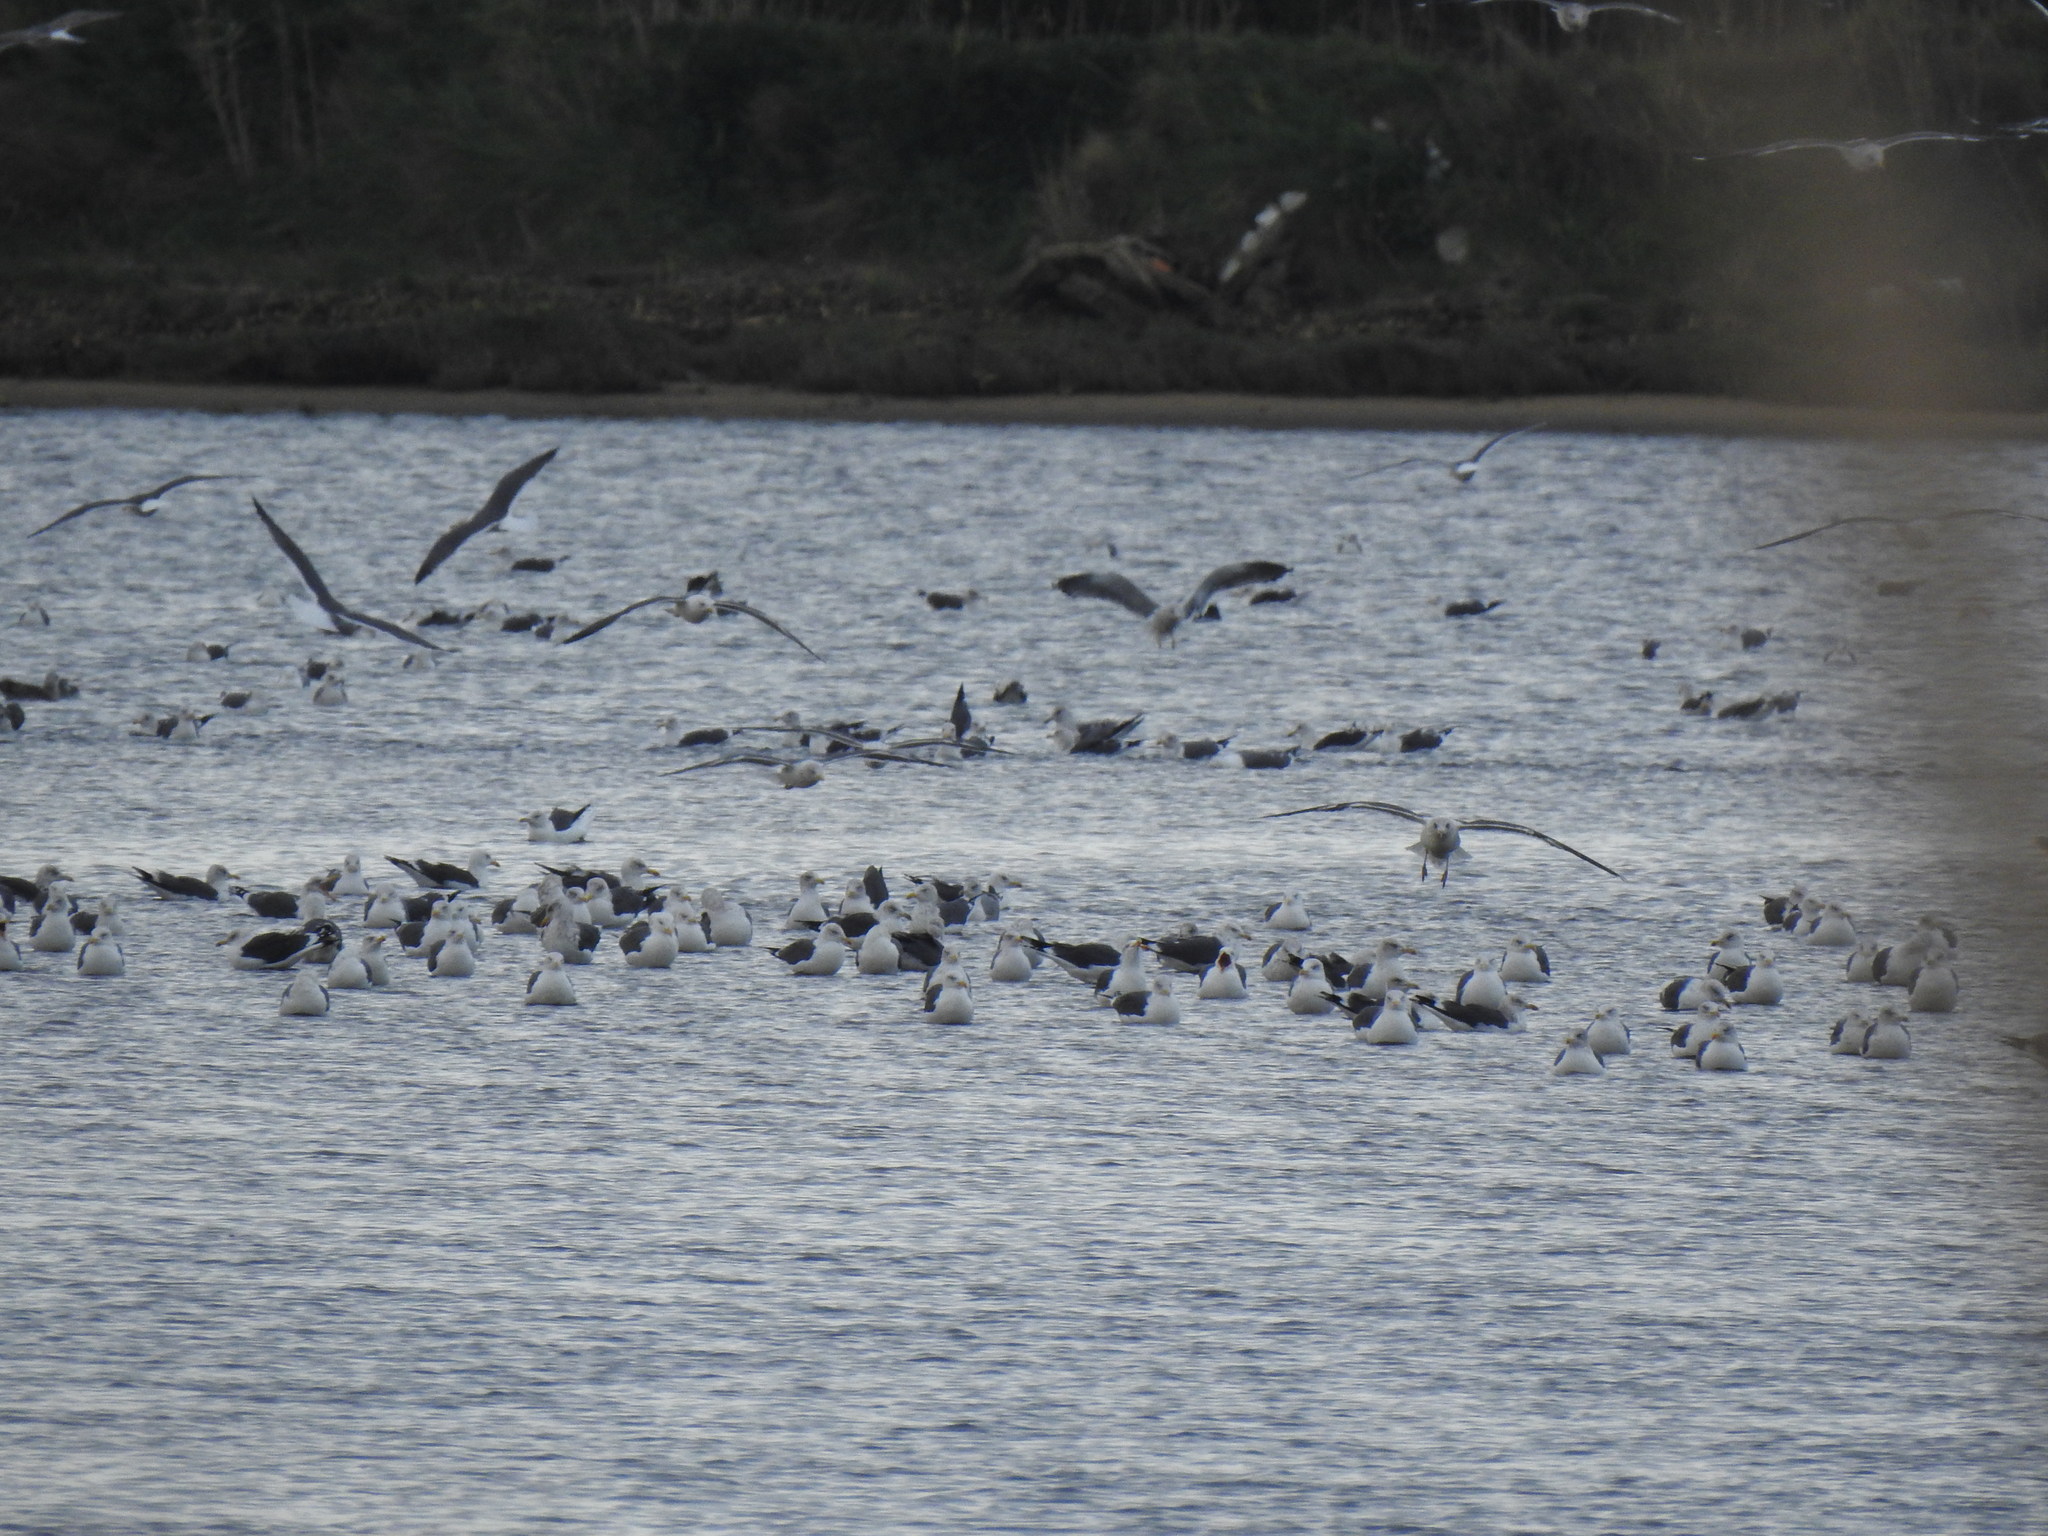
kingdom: Animalia
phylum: Chordata
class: Aves
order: Charadriiformes
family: Laridae
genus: Larus
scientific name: Larus fuscus
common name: Lesser black-backed gull
